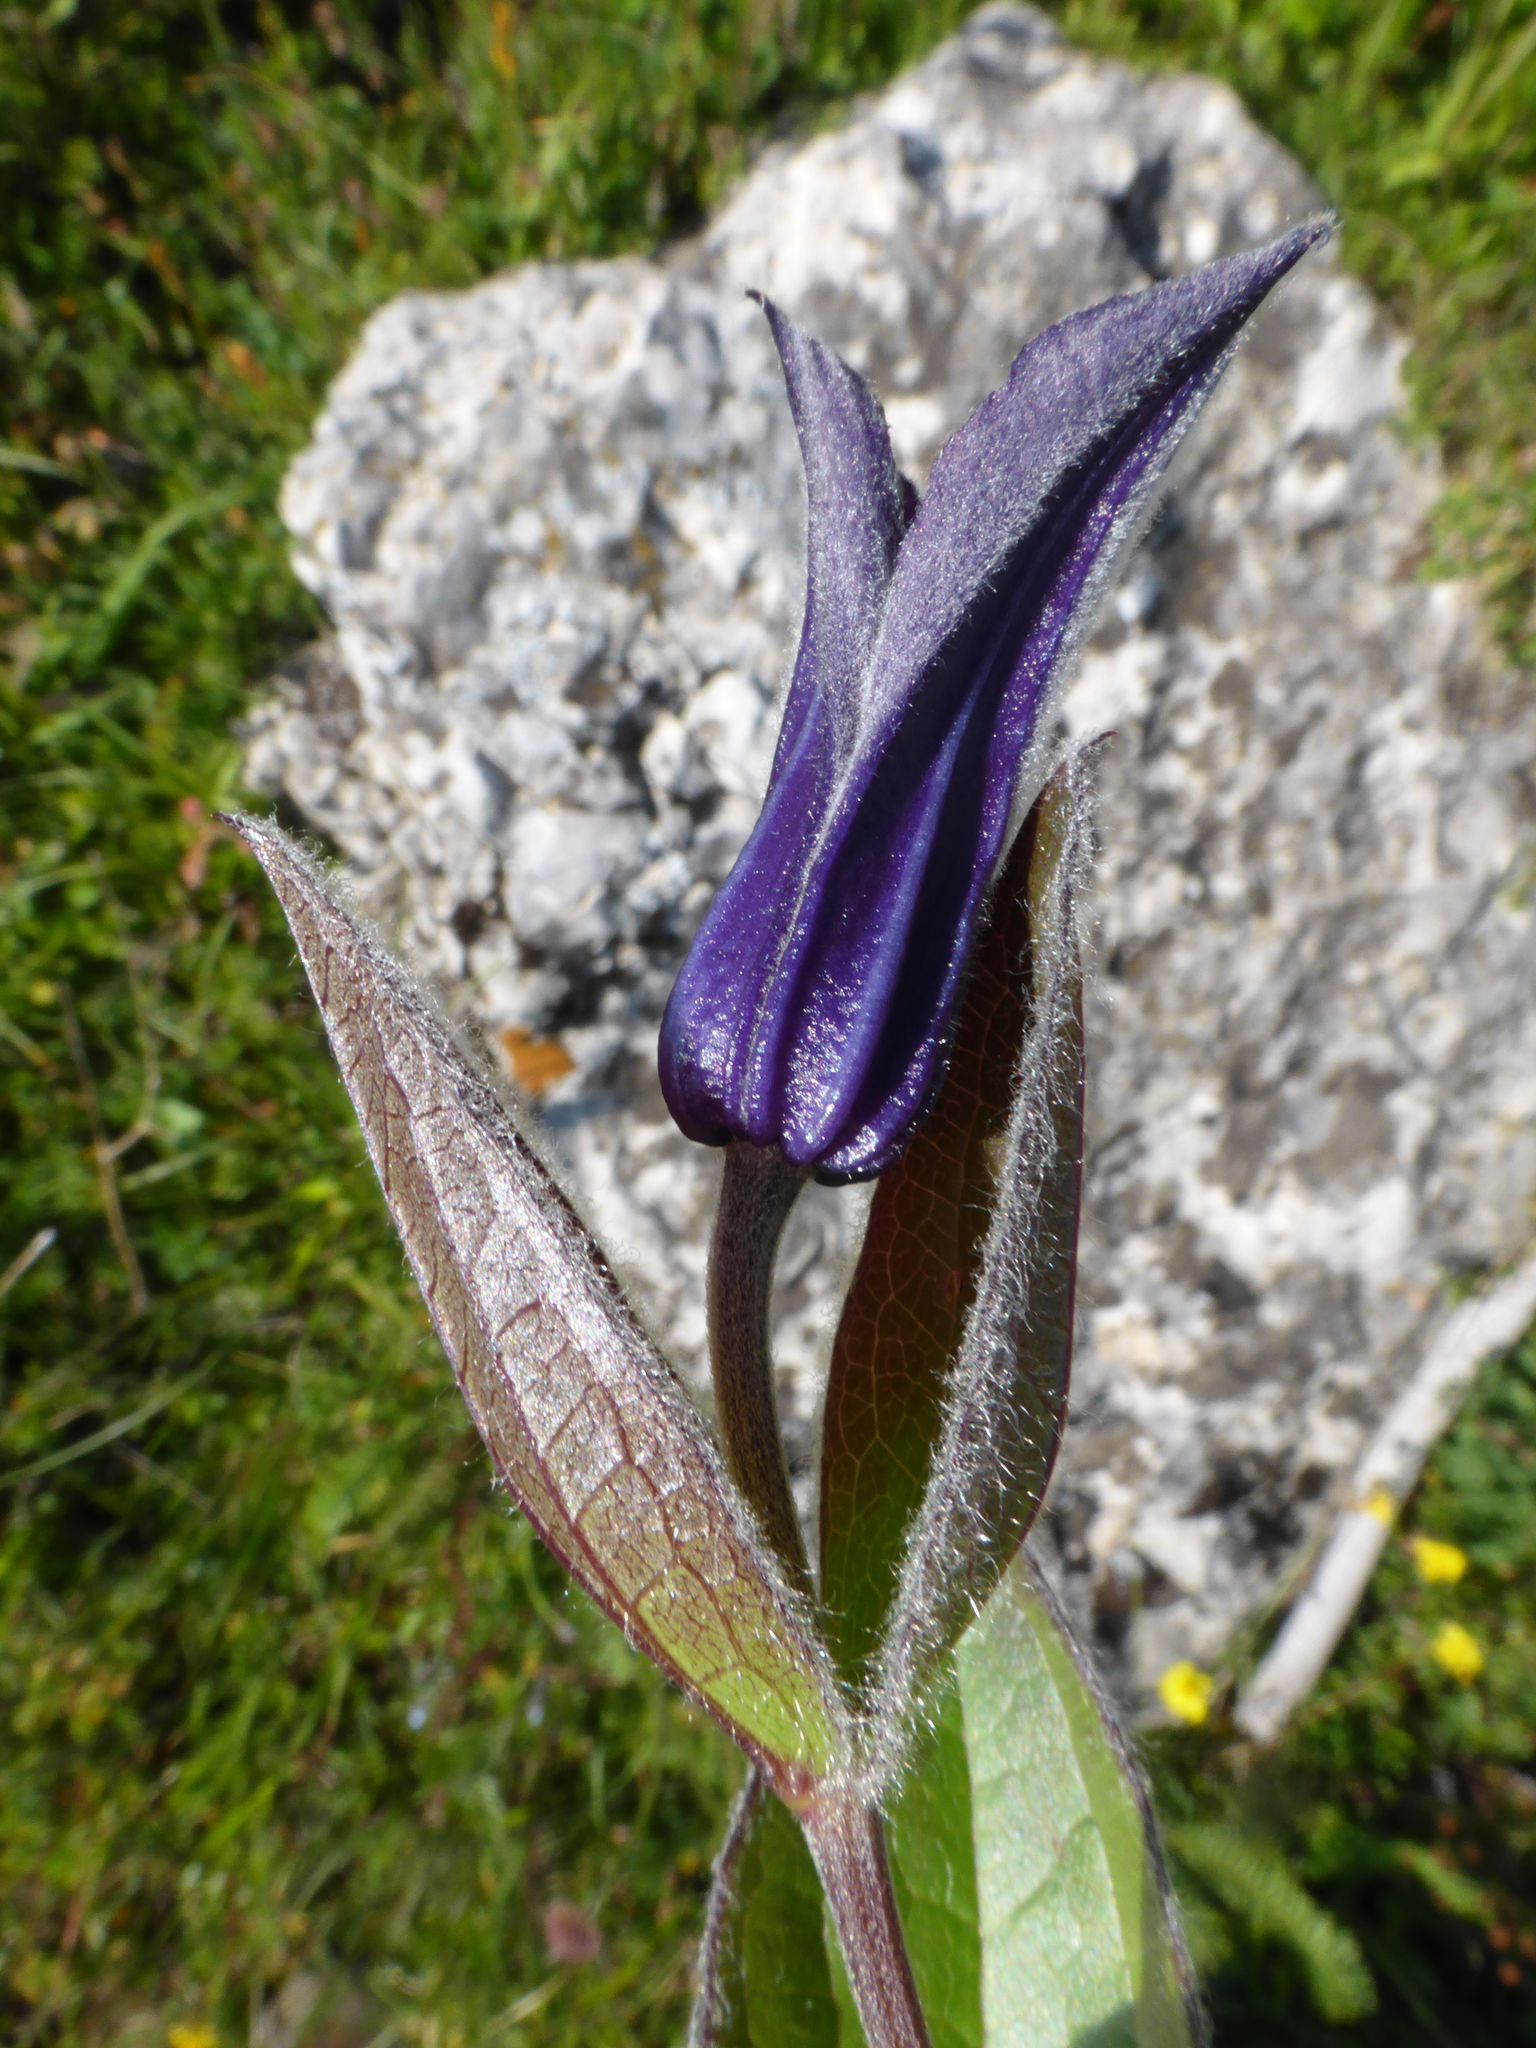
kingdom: Plantae
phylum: Tracheophyta
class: Magnoliopsida
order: Ranunculales
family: Ranunculaceae
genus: Clematis
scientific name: Clematis integrifolia
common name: Solitary clematis
